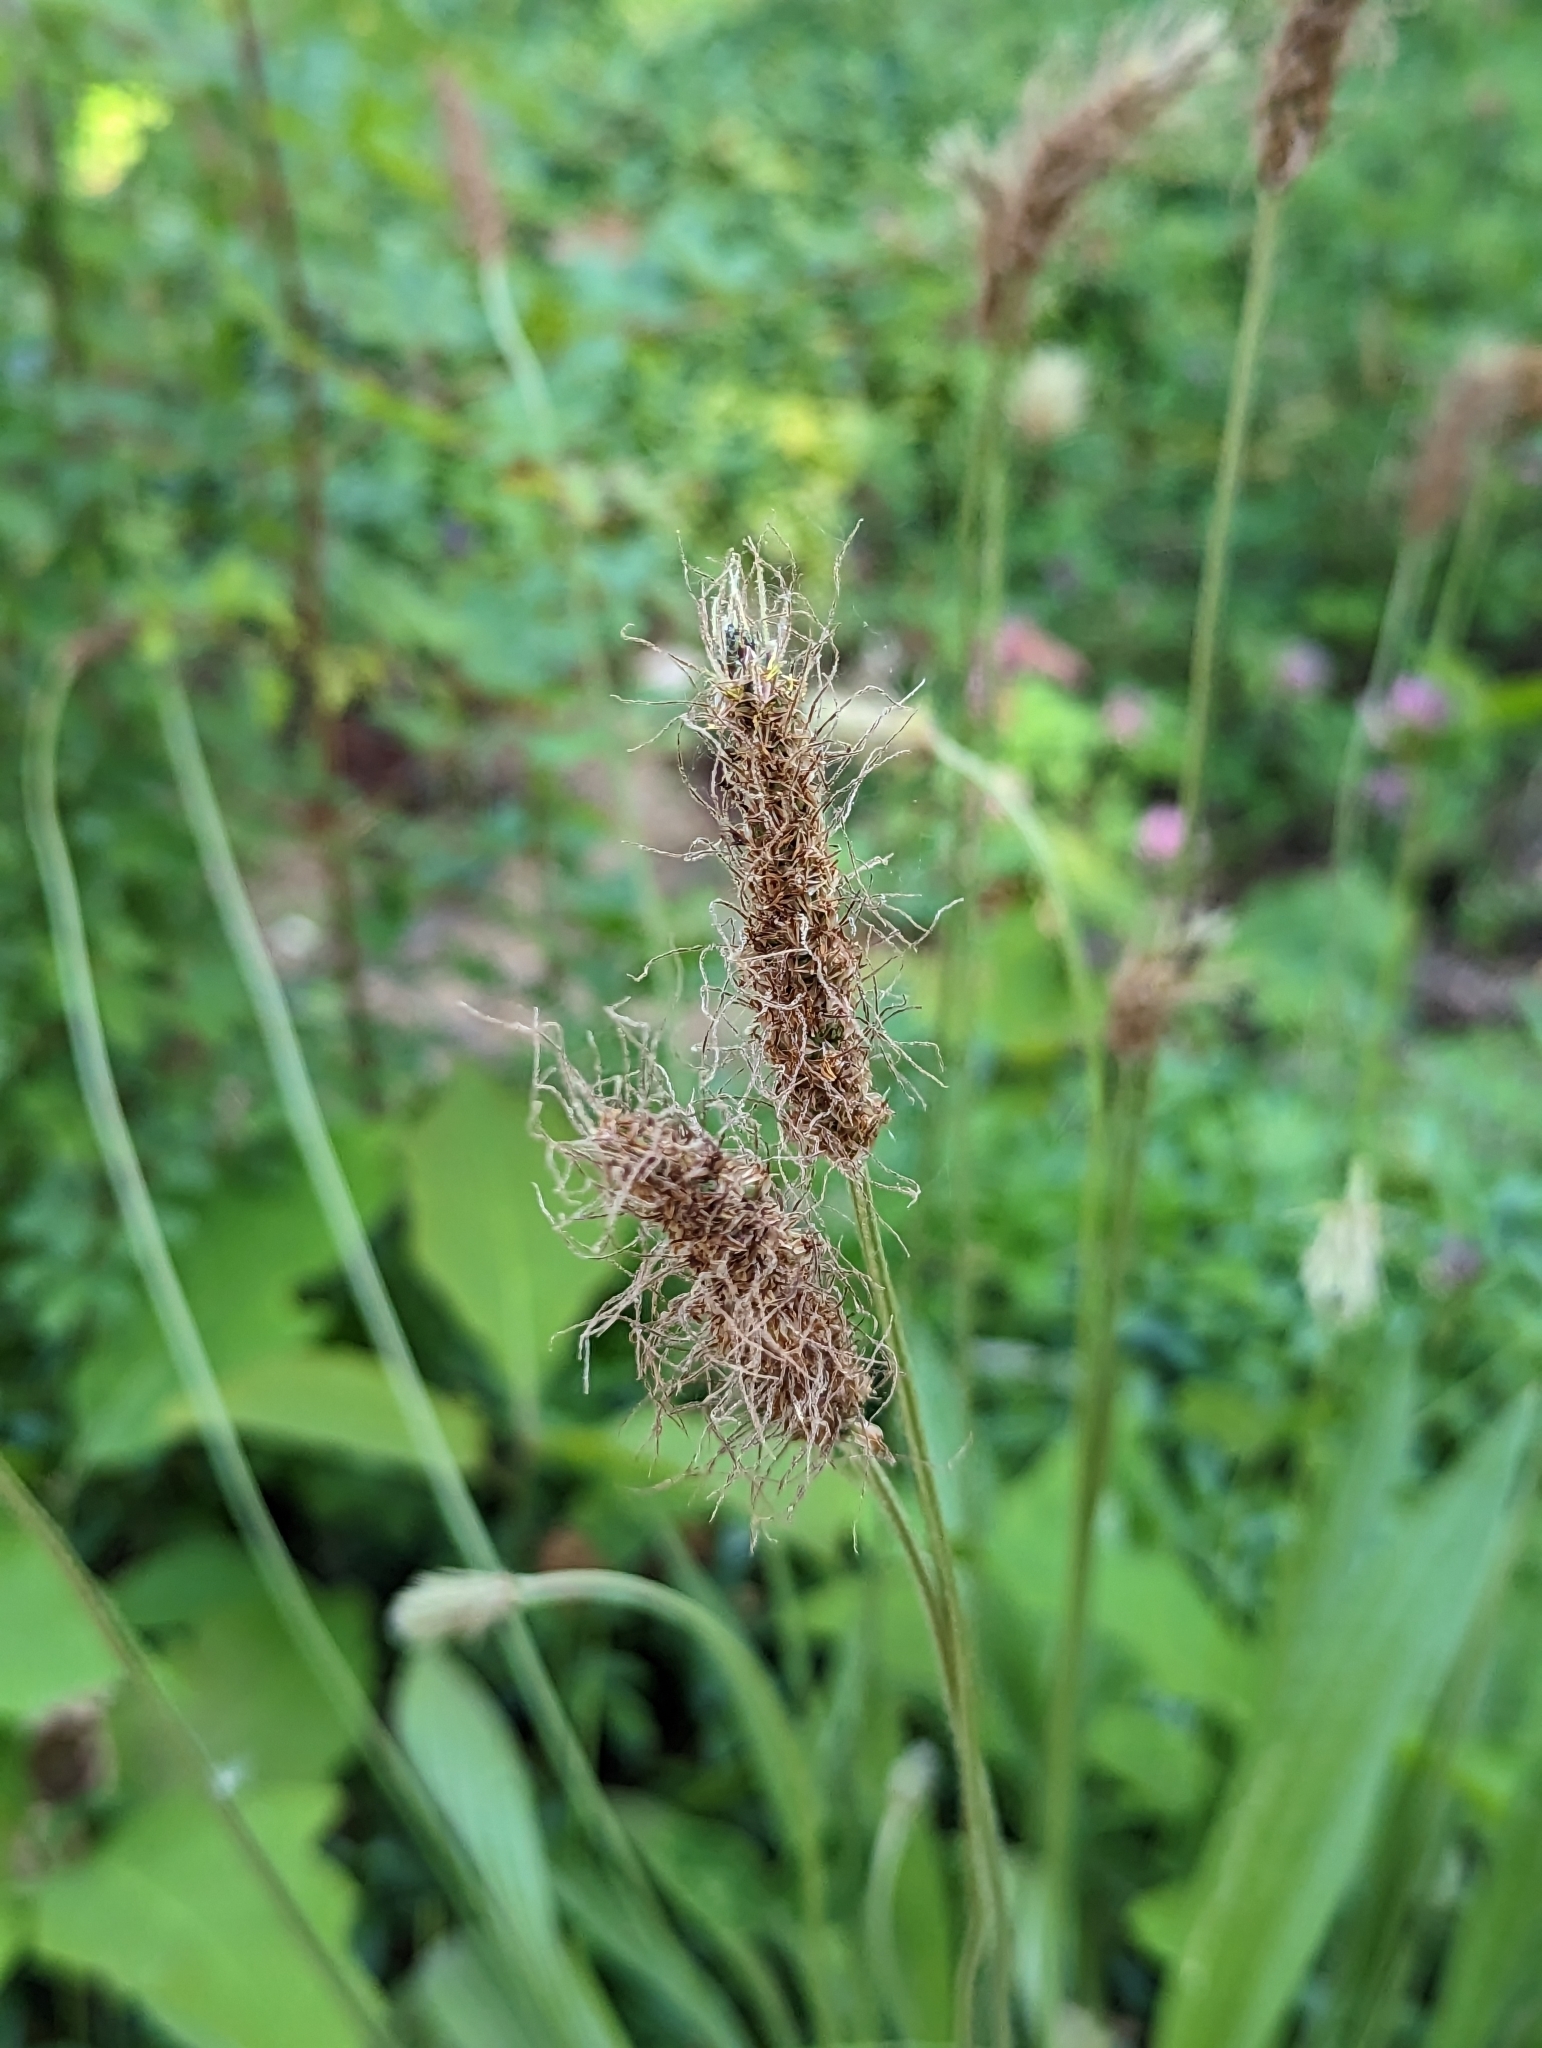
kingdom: Plantae
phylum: Tracheophyta
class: Magnoliopsida
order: Lamiales
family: Plantaginaceae
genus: Plantago
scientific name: Plantago lanceolata
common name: Ribwort plantain
